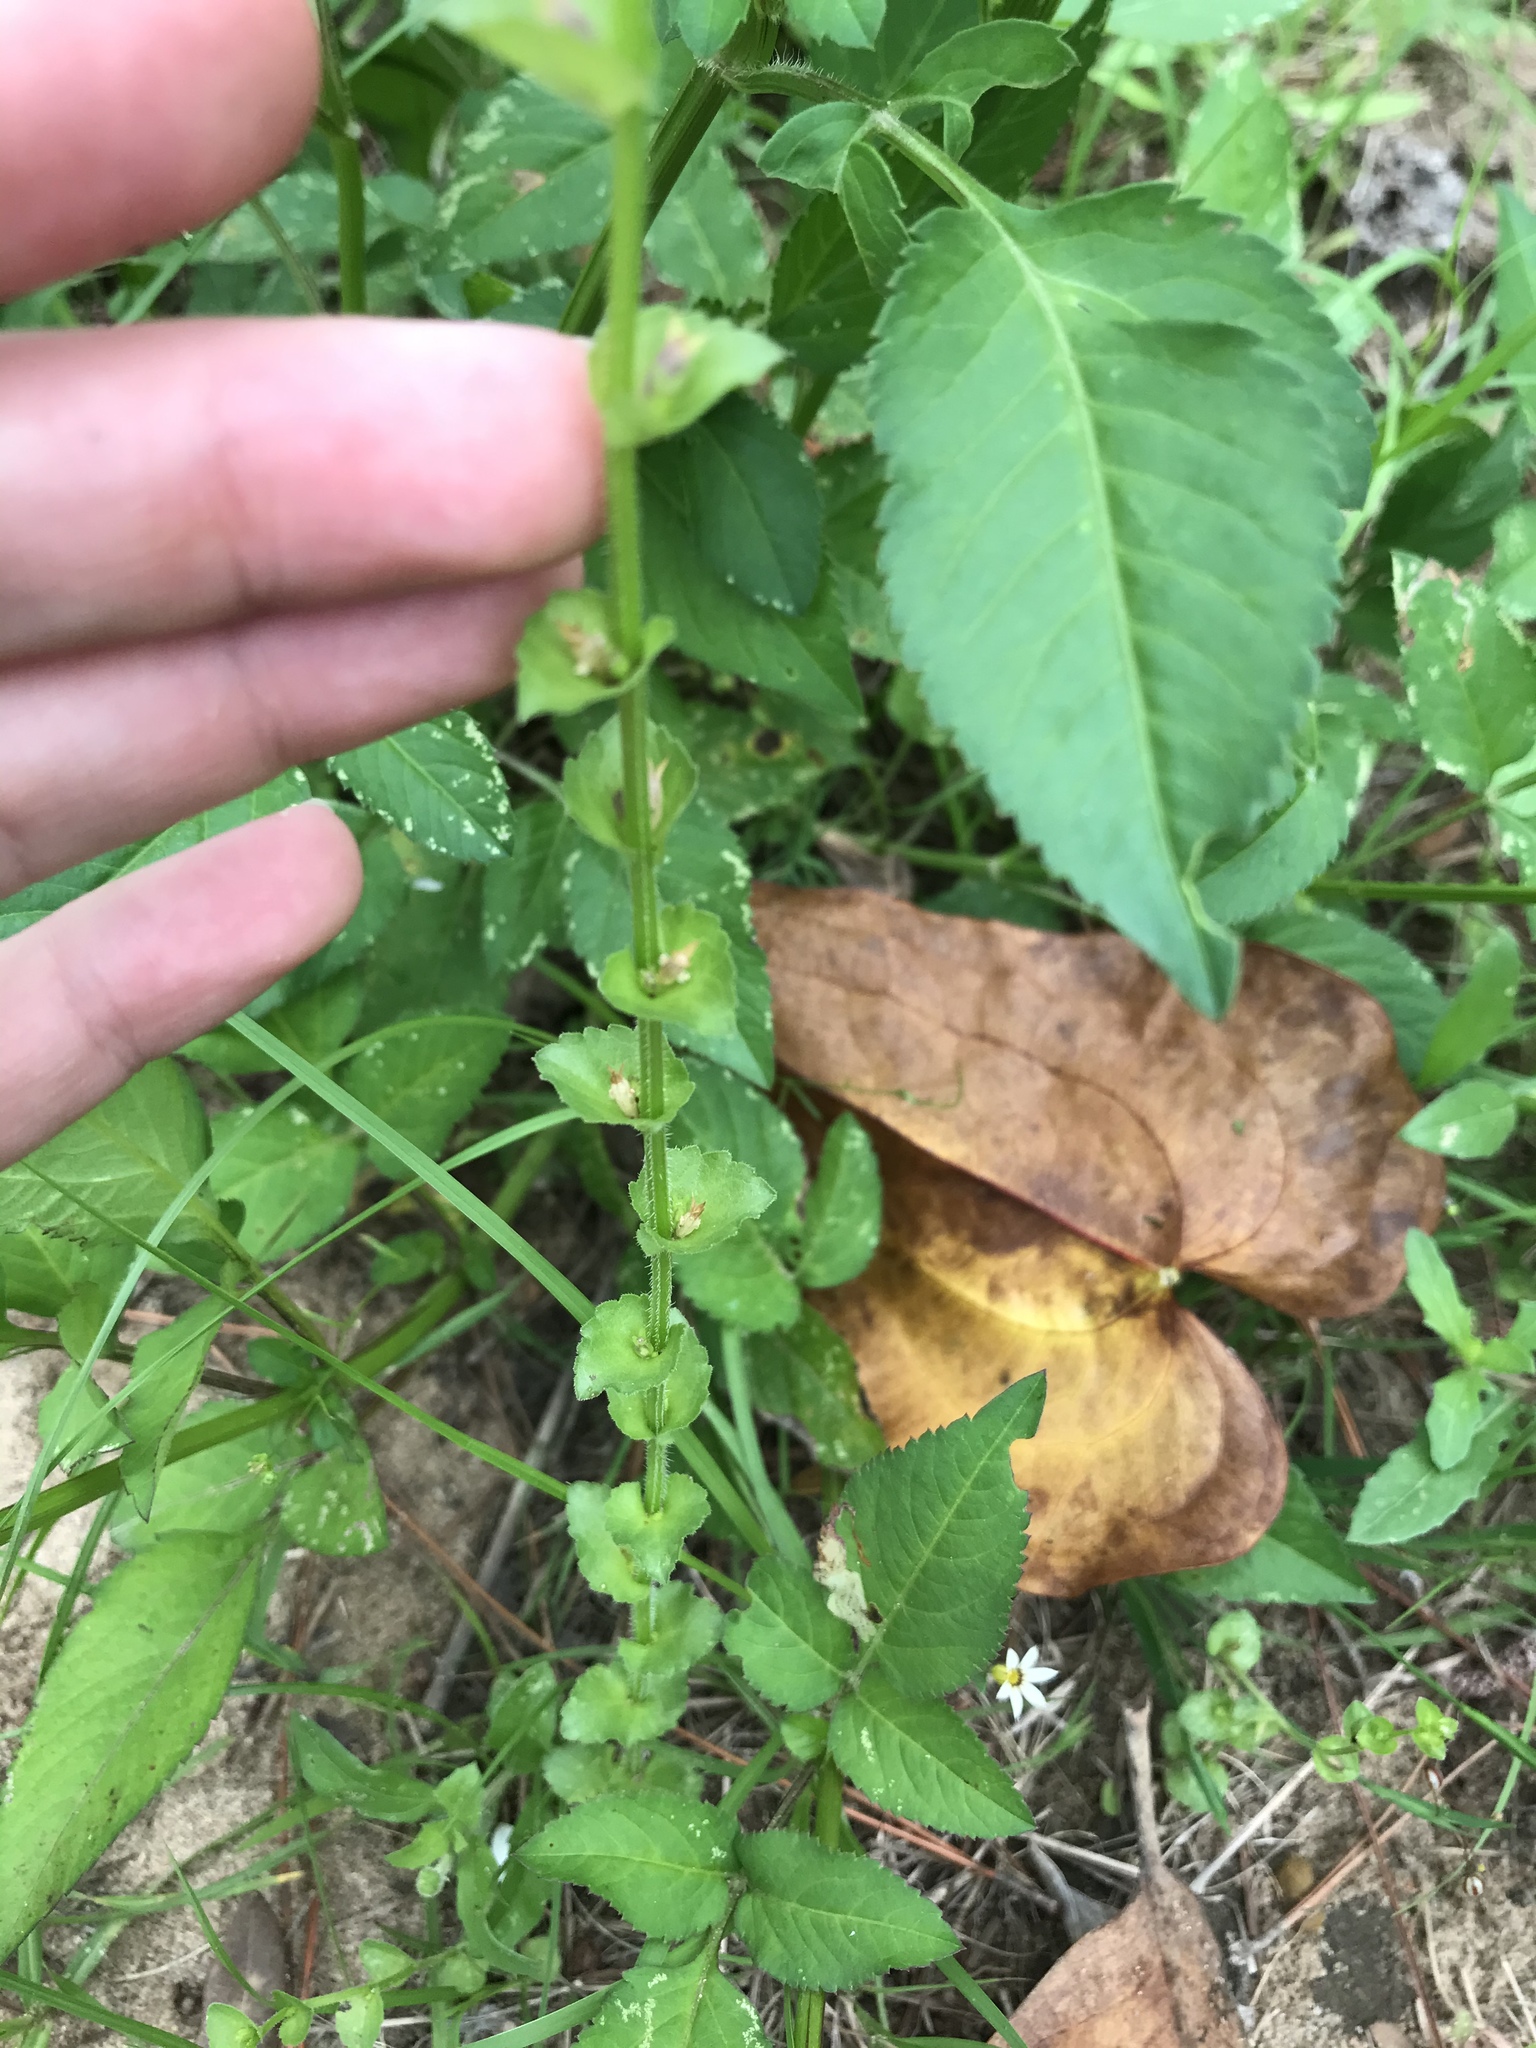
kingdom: Plantae
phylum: Tracheophyta
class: Magnoliopsida
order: Asterales
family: Campanulaceae
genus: Triodanis
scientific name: Triodanis perfoliata
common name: Clasping venus' looking-glass
